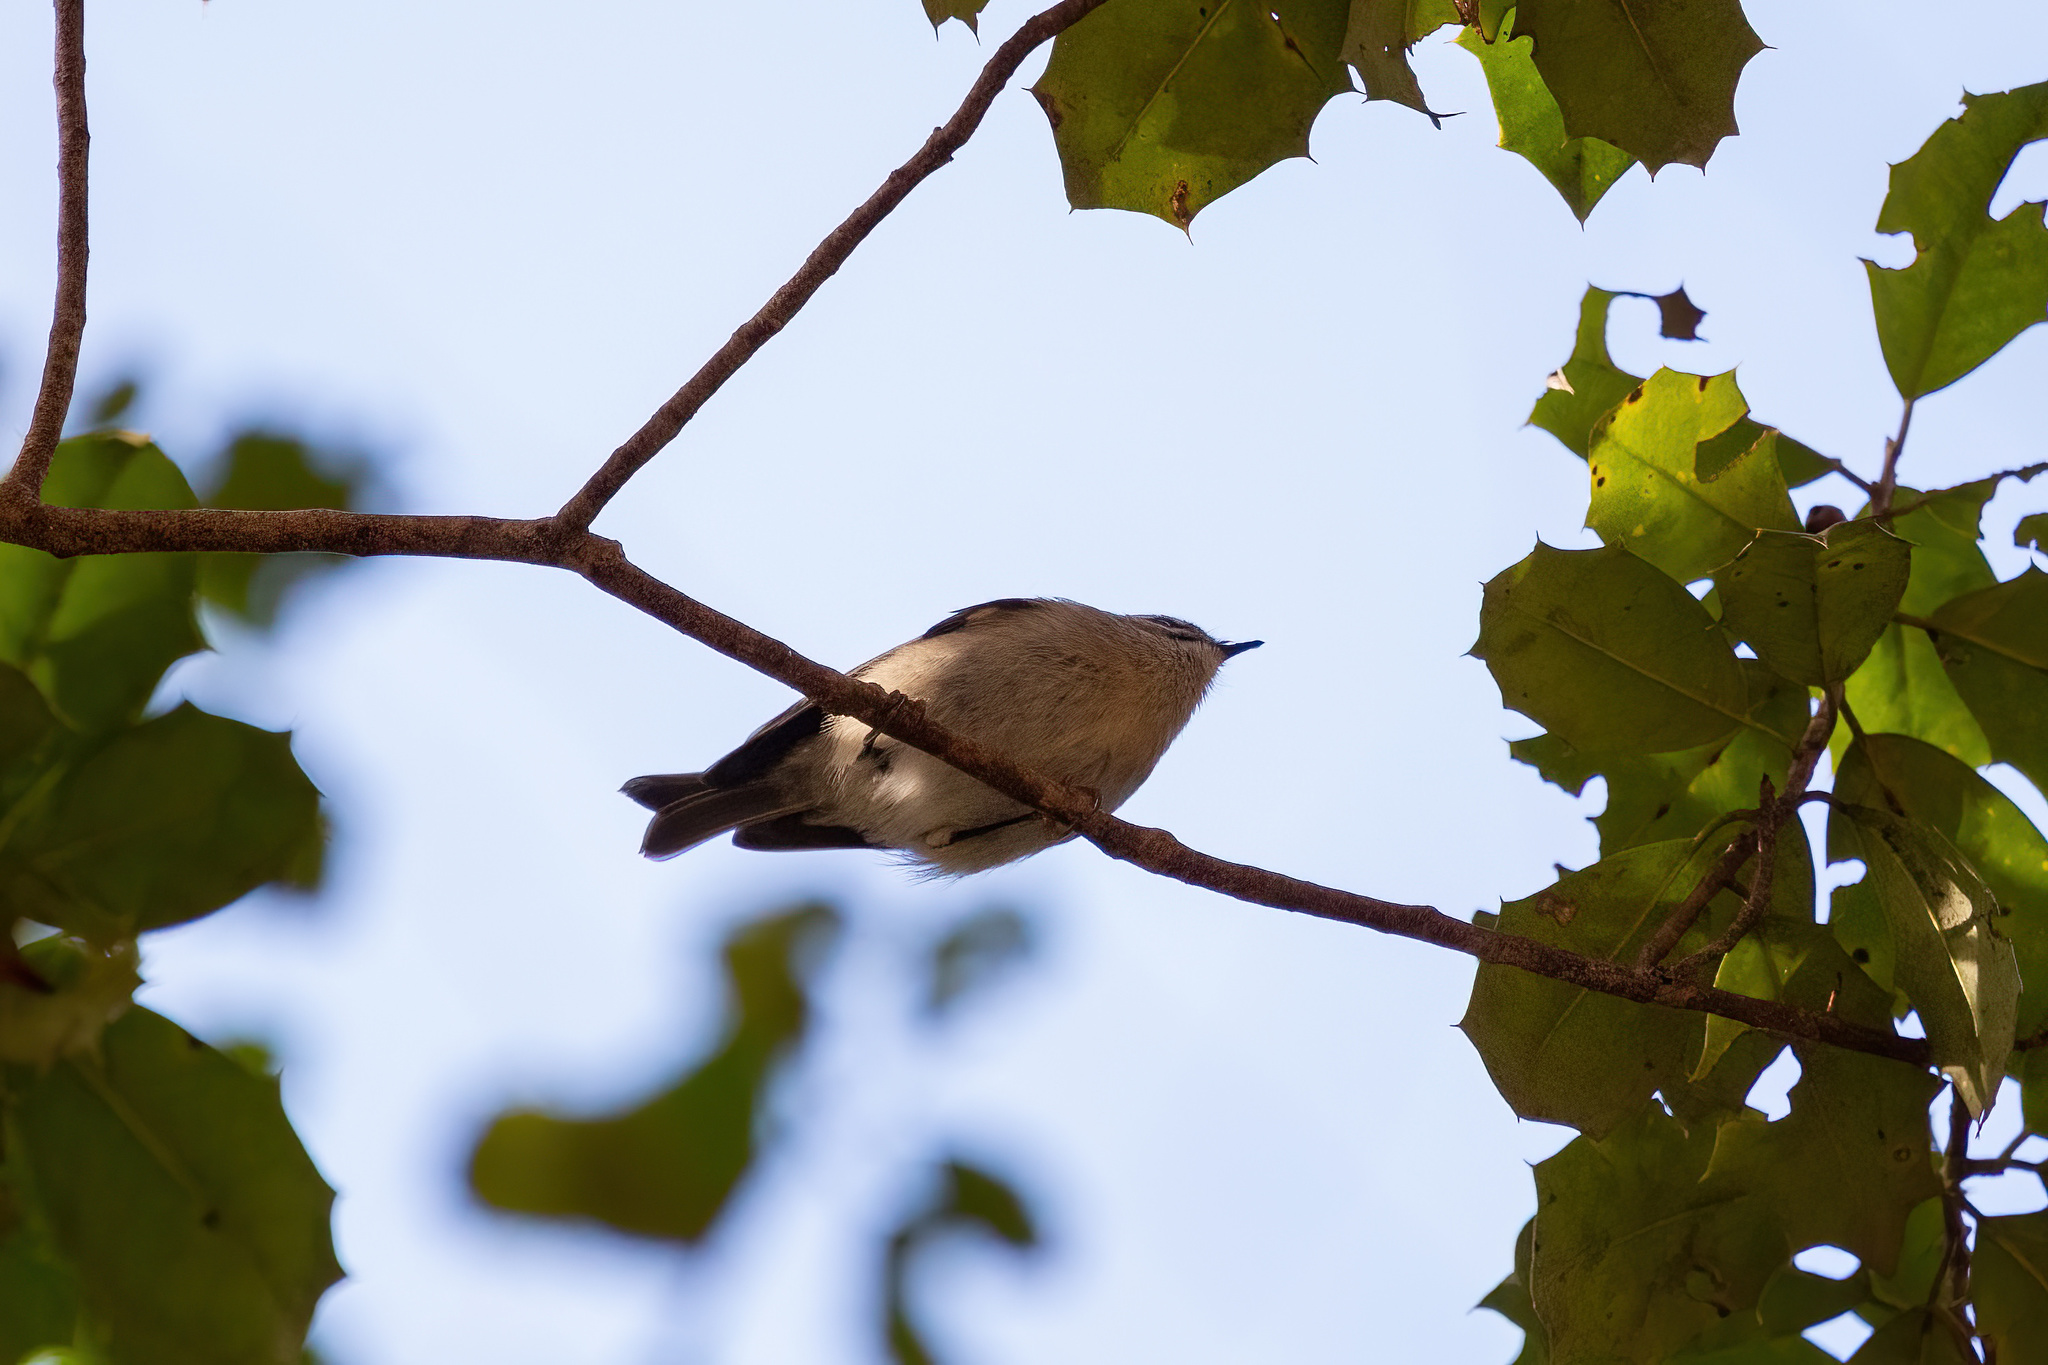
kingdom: Animalia
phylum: Chordata
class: Aves
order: Passeriformes
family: Regulidae
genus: Regulus
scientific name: Regulus calendula
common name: Ruby-crowned kinglet
